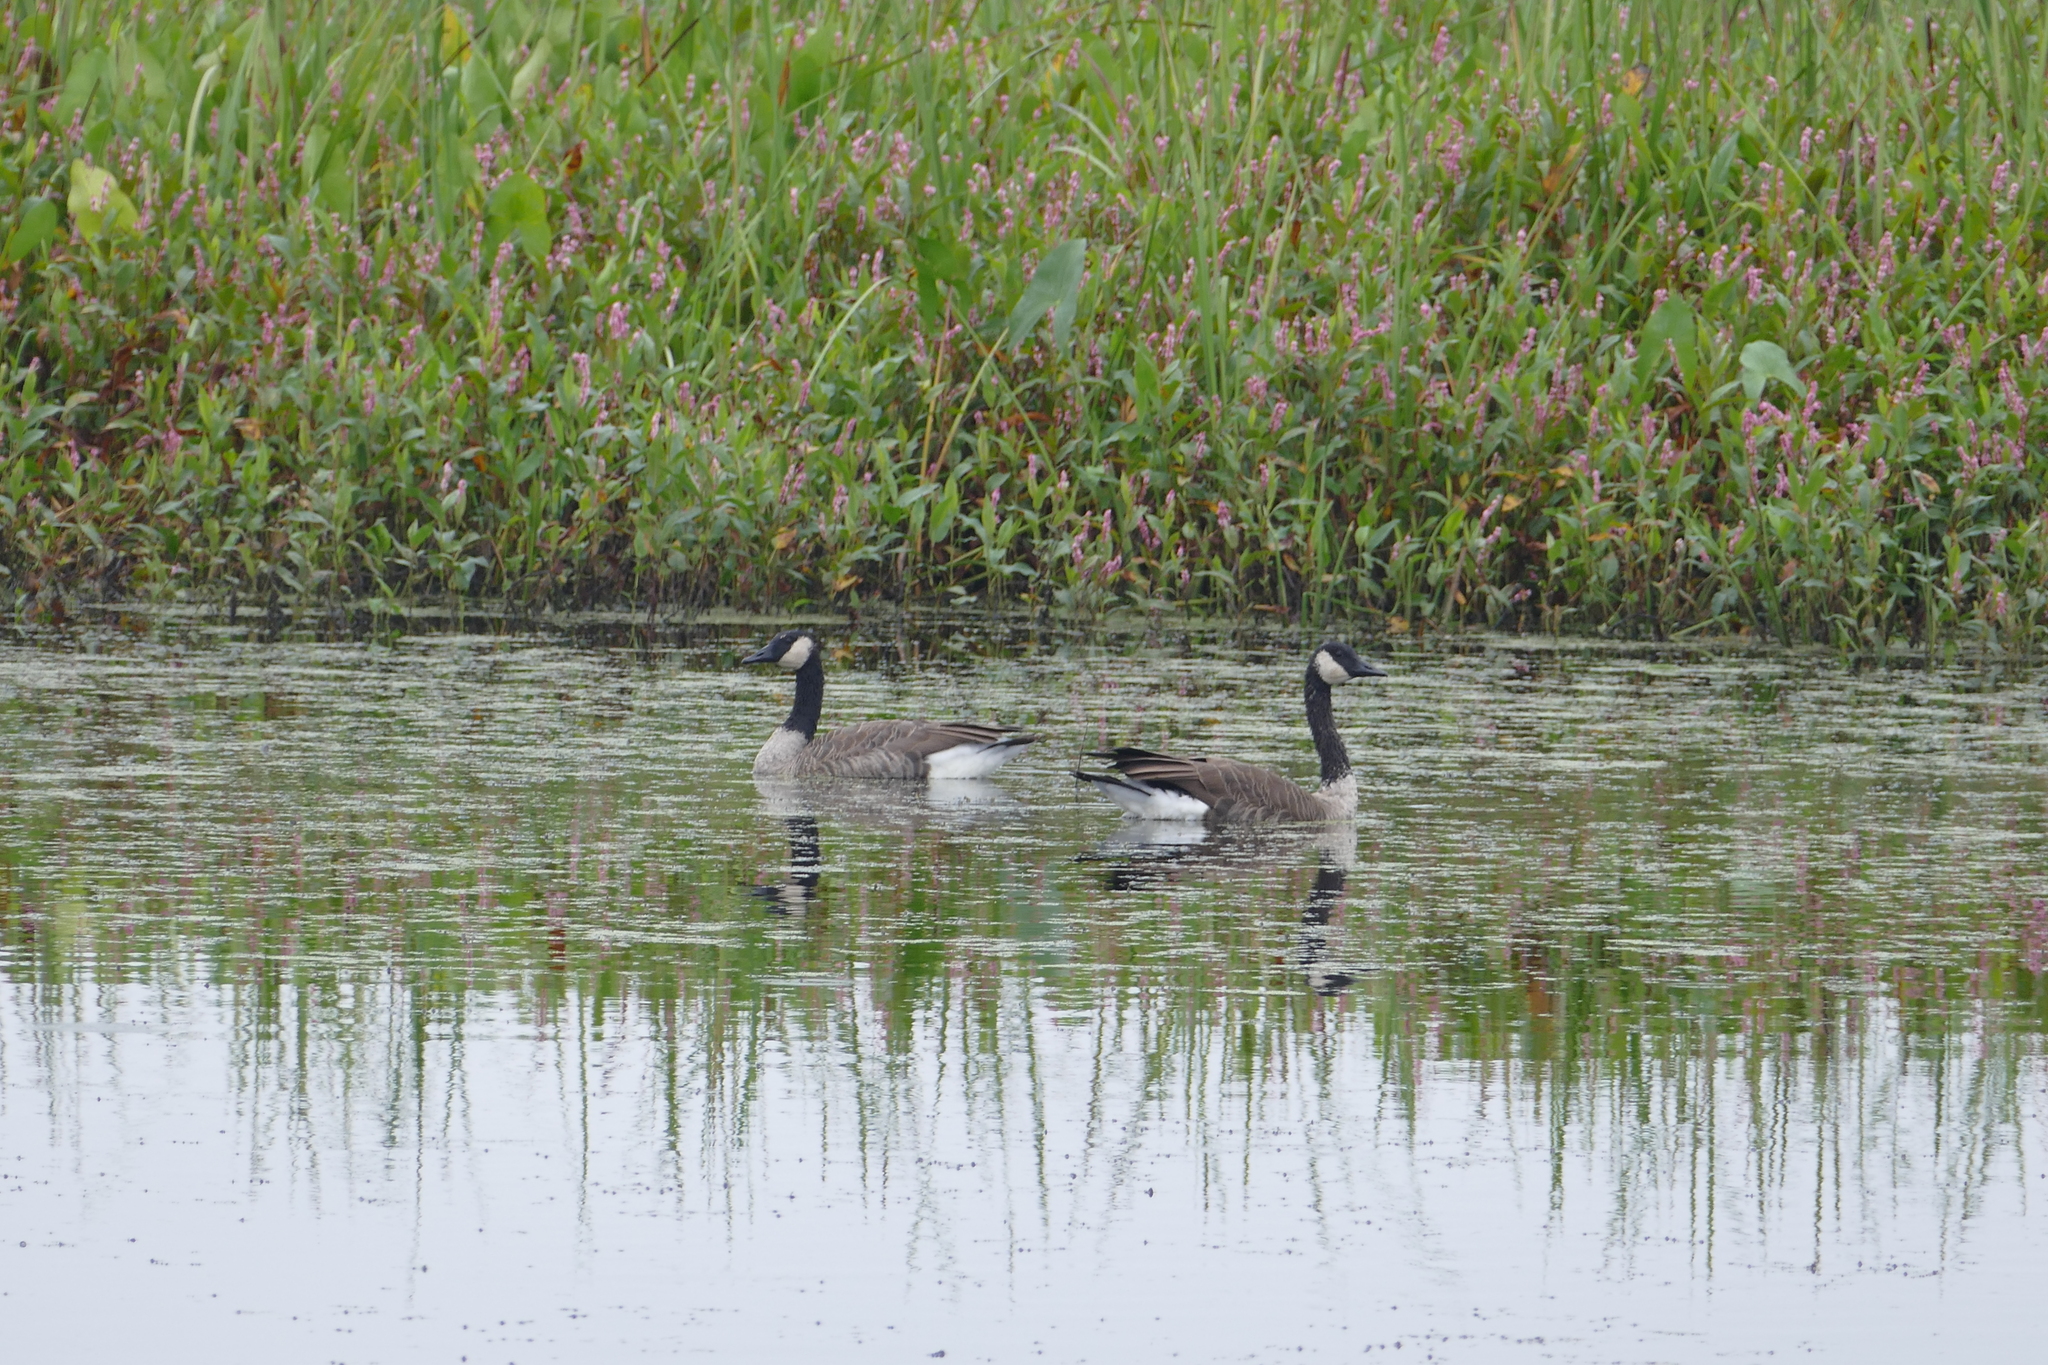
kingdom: Animalia
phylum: Chordata
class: Aves
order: Anseriformes
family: Anatidae
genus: Branta
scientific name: Branta canadensis
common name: Canada goose
